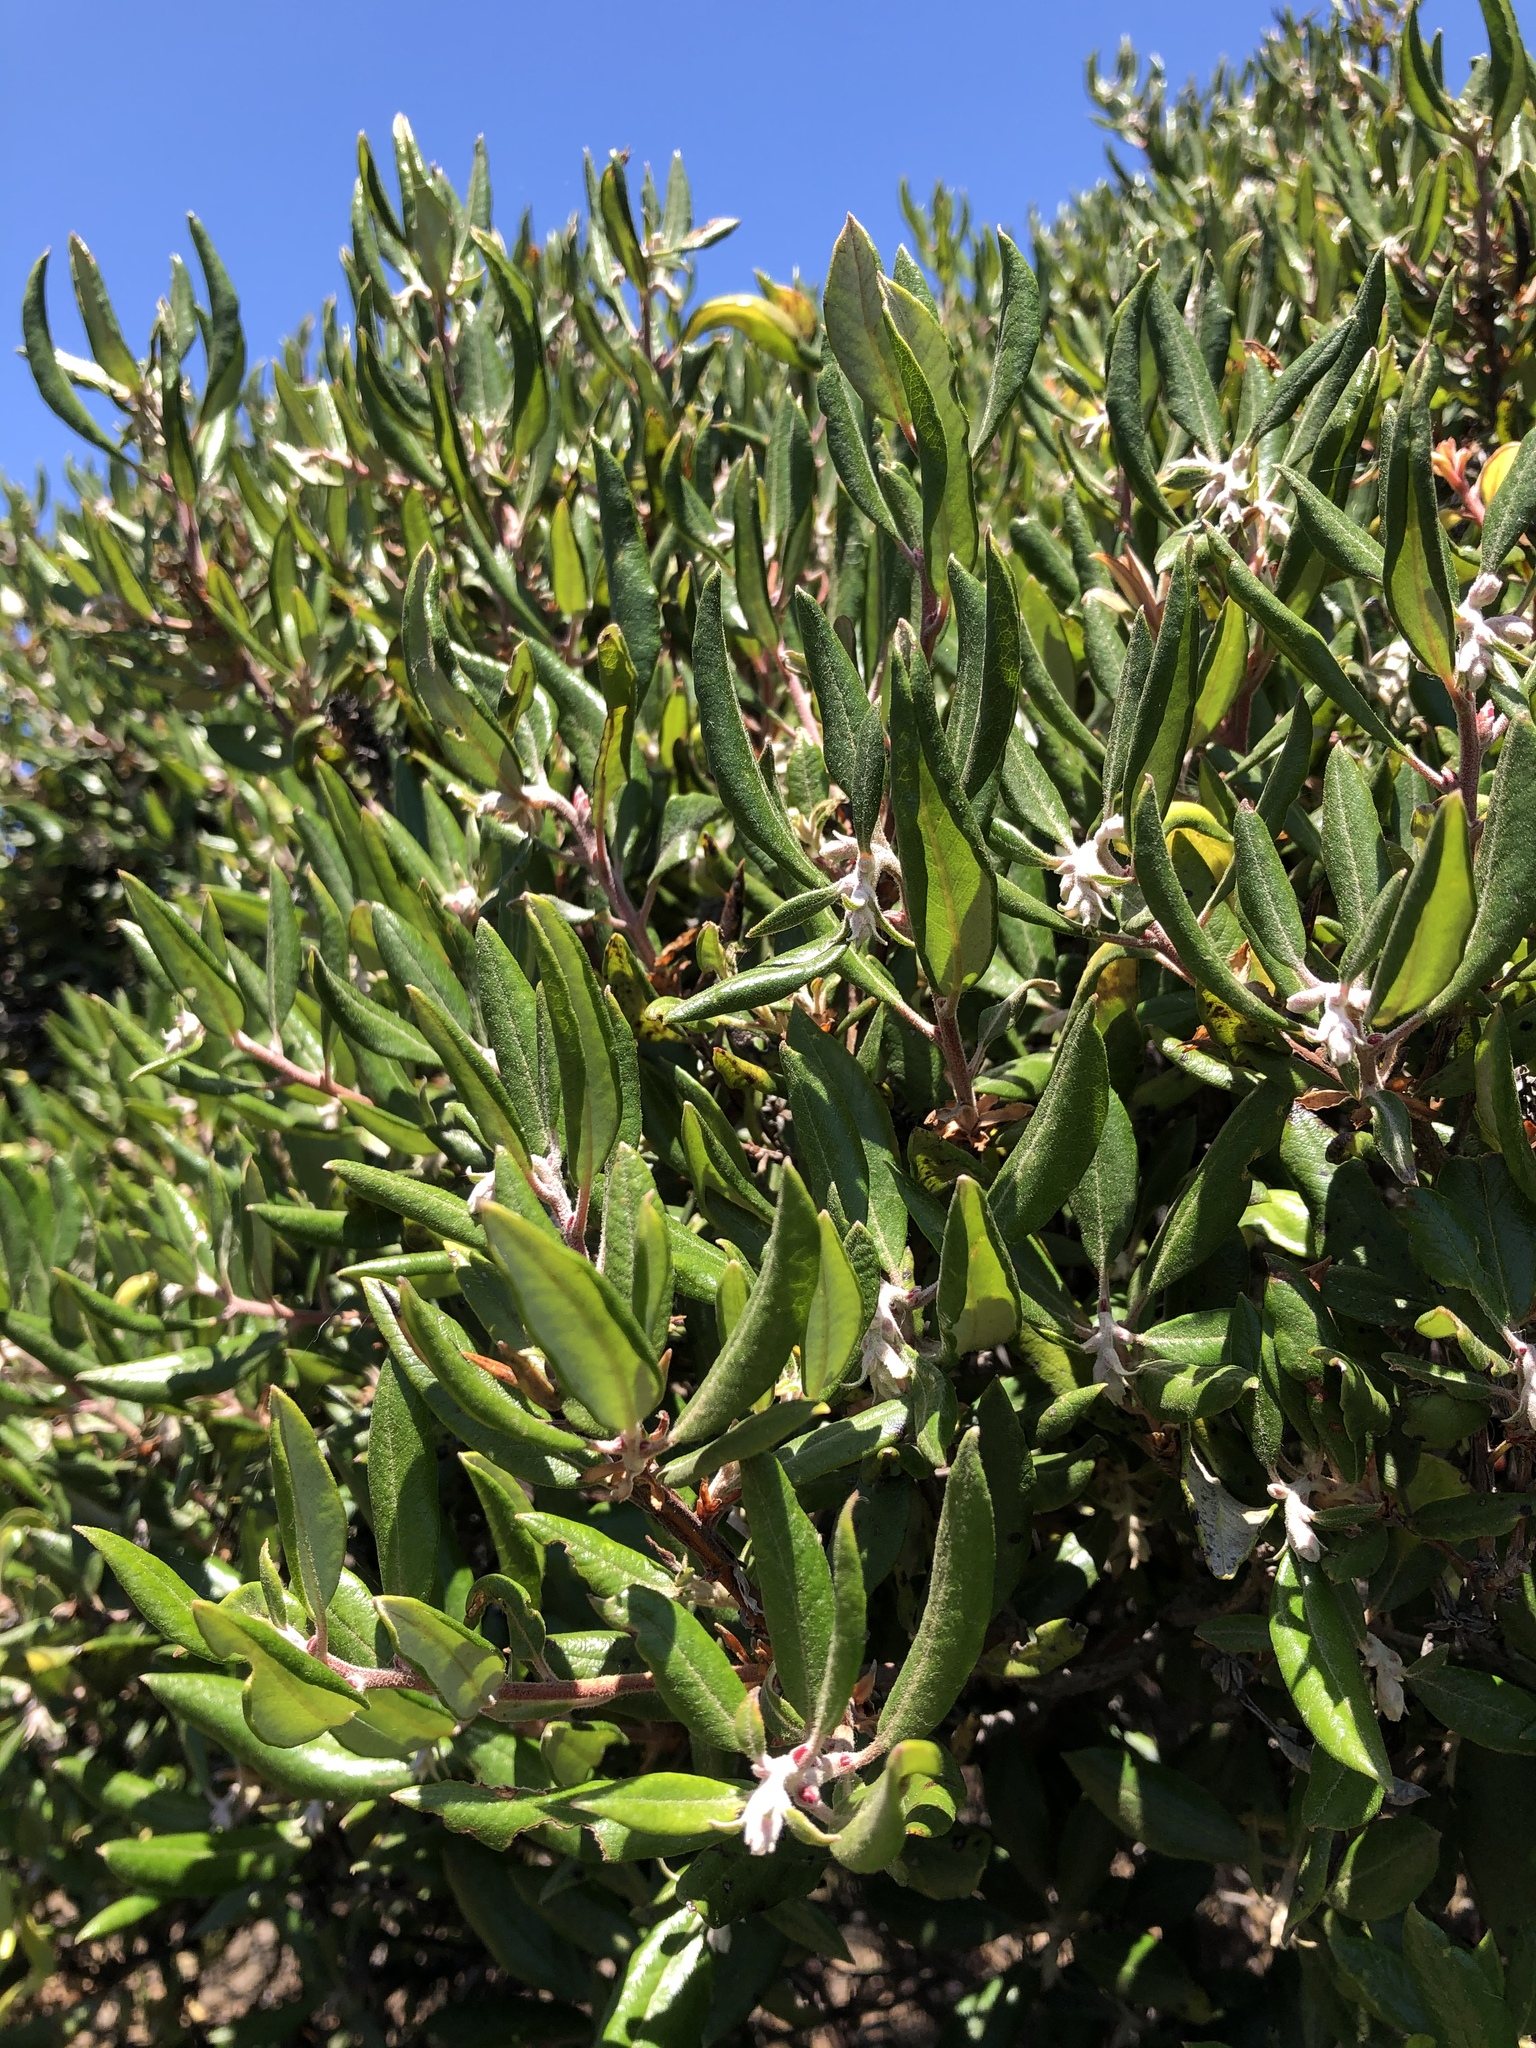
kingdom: Plantae
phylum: Tracheophyta
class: Magnoliopsida
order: Ericales
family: Ericaceae
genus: Arctostaphylos
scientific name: Arctostaphylos bicolor
